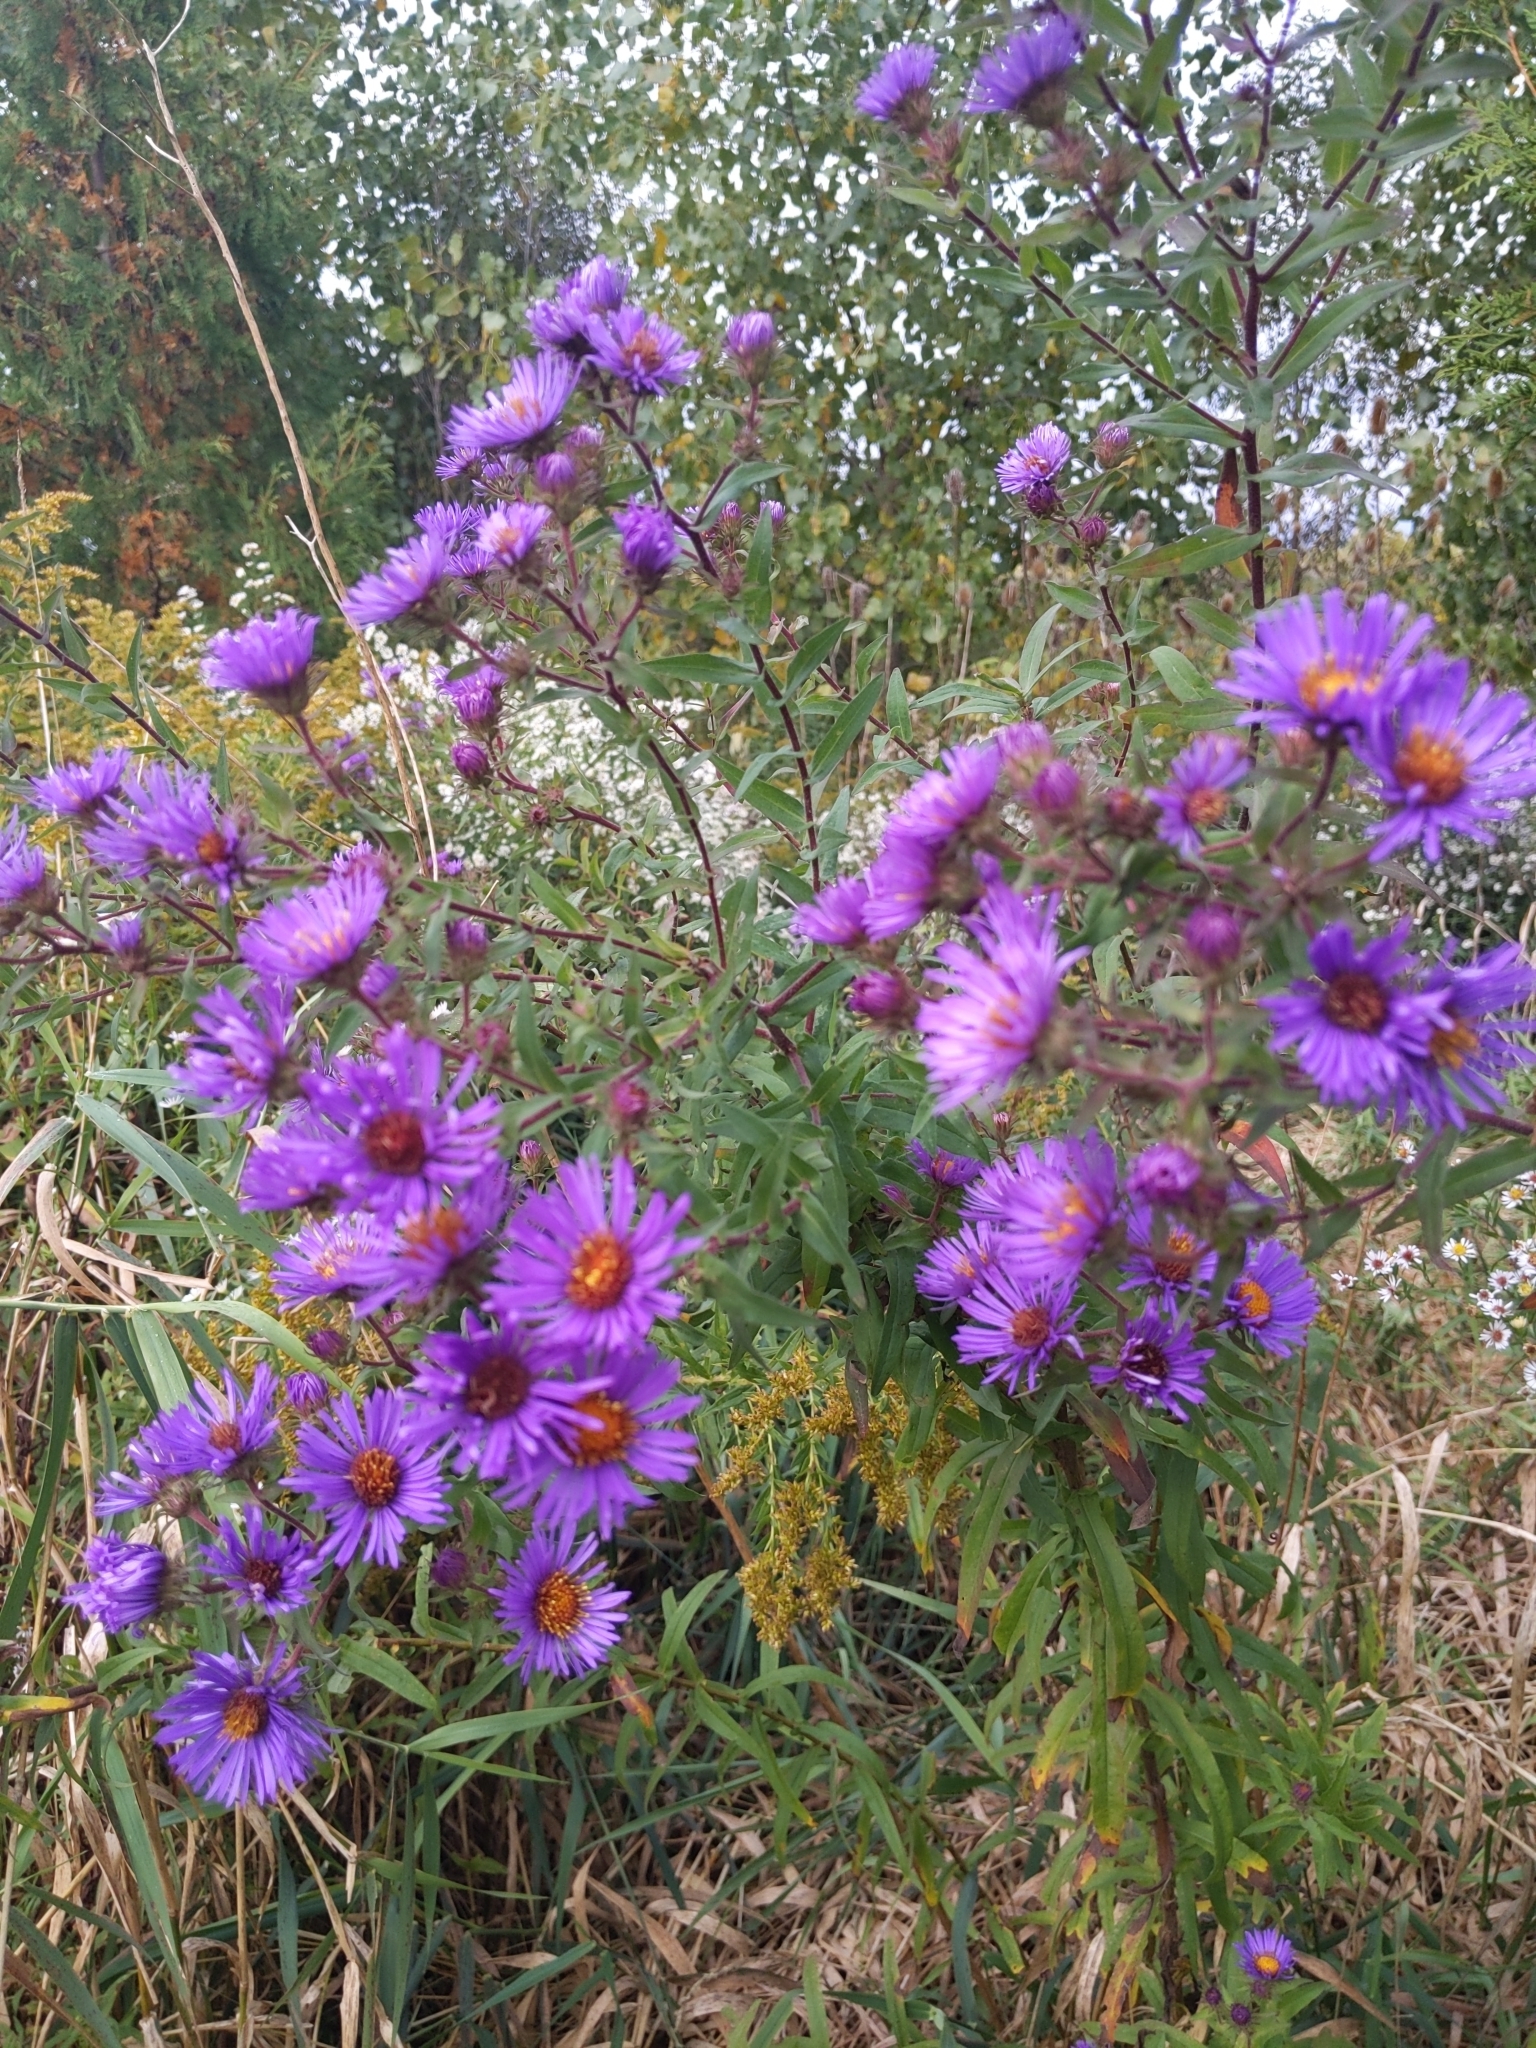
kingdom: Plantae
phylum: Tracheophyta
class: Magnoliopsida
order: Asterales
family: Asteraceae
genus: Symphyotrichum
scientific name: Symphyotrichum novae-angliae
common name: Michaelmas daisy
